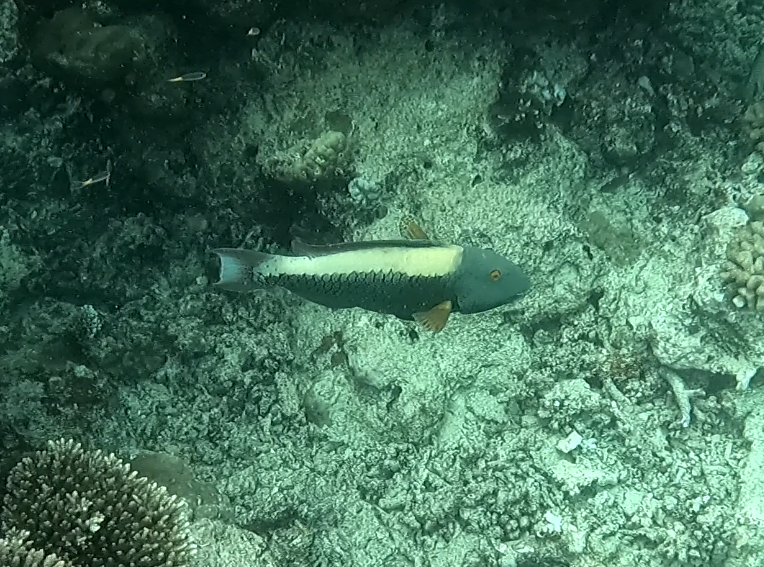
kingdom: Animalia
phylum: Chordata
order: Perciformes
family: Scaridae
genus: Cetoscarus
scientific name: Cetoscarus ocellatus
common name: Bicolor parrotfish
